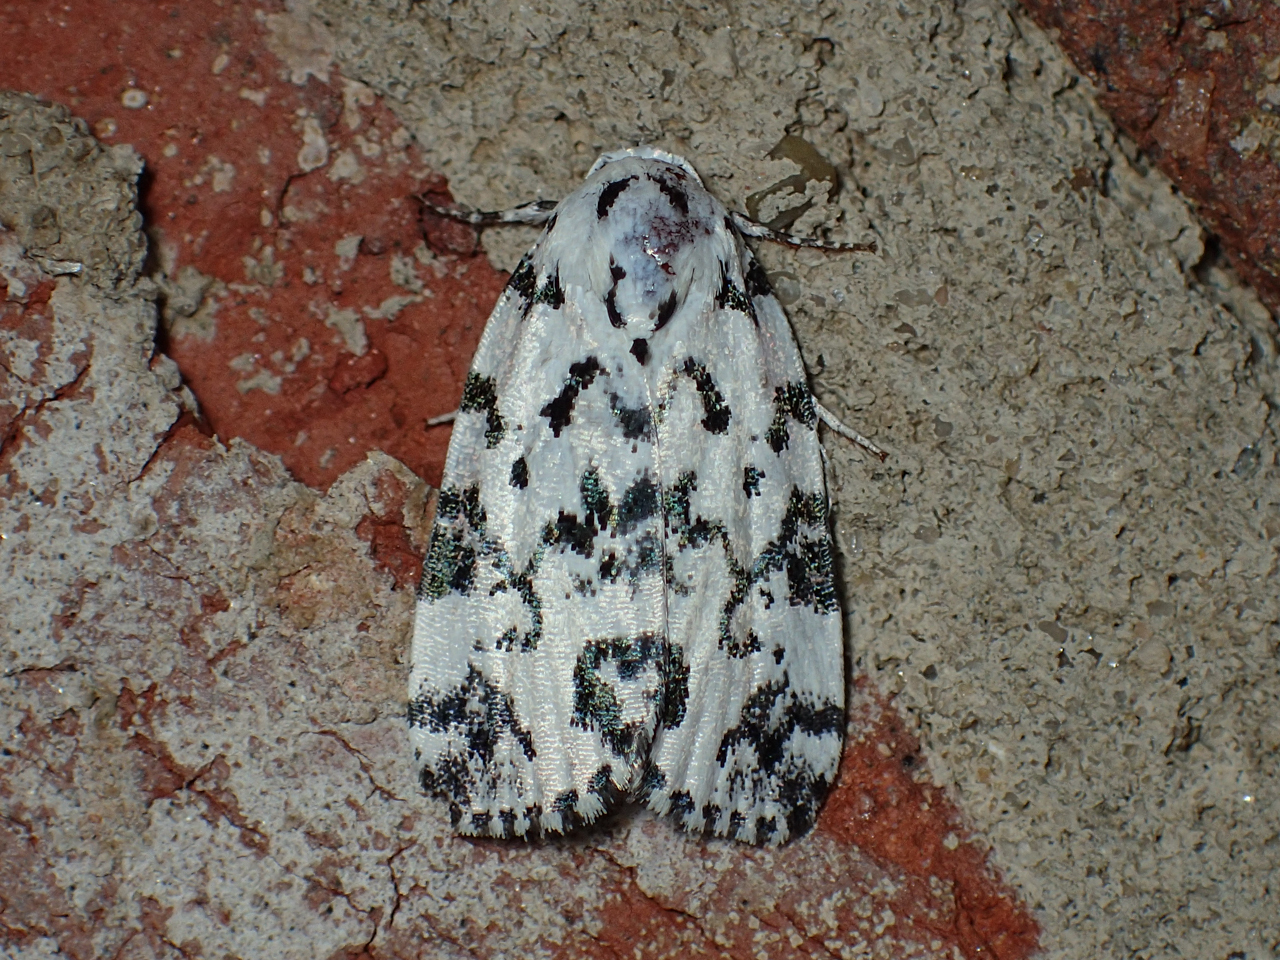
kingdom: Animalia
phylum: Arthropoda
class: Insecta
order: Lepidoptera
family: Noctuidae
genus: Polygrammate
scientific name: Polygrammate hebraeicum
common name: Hebrew moth
